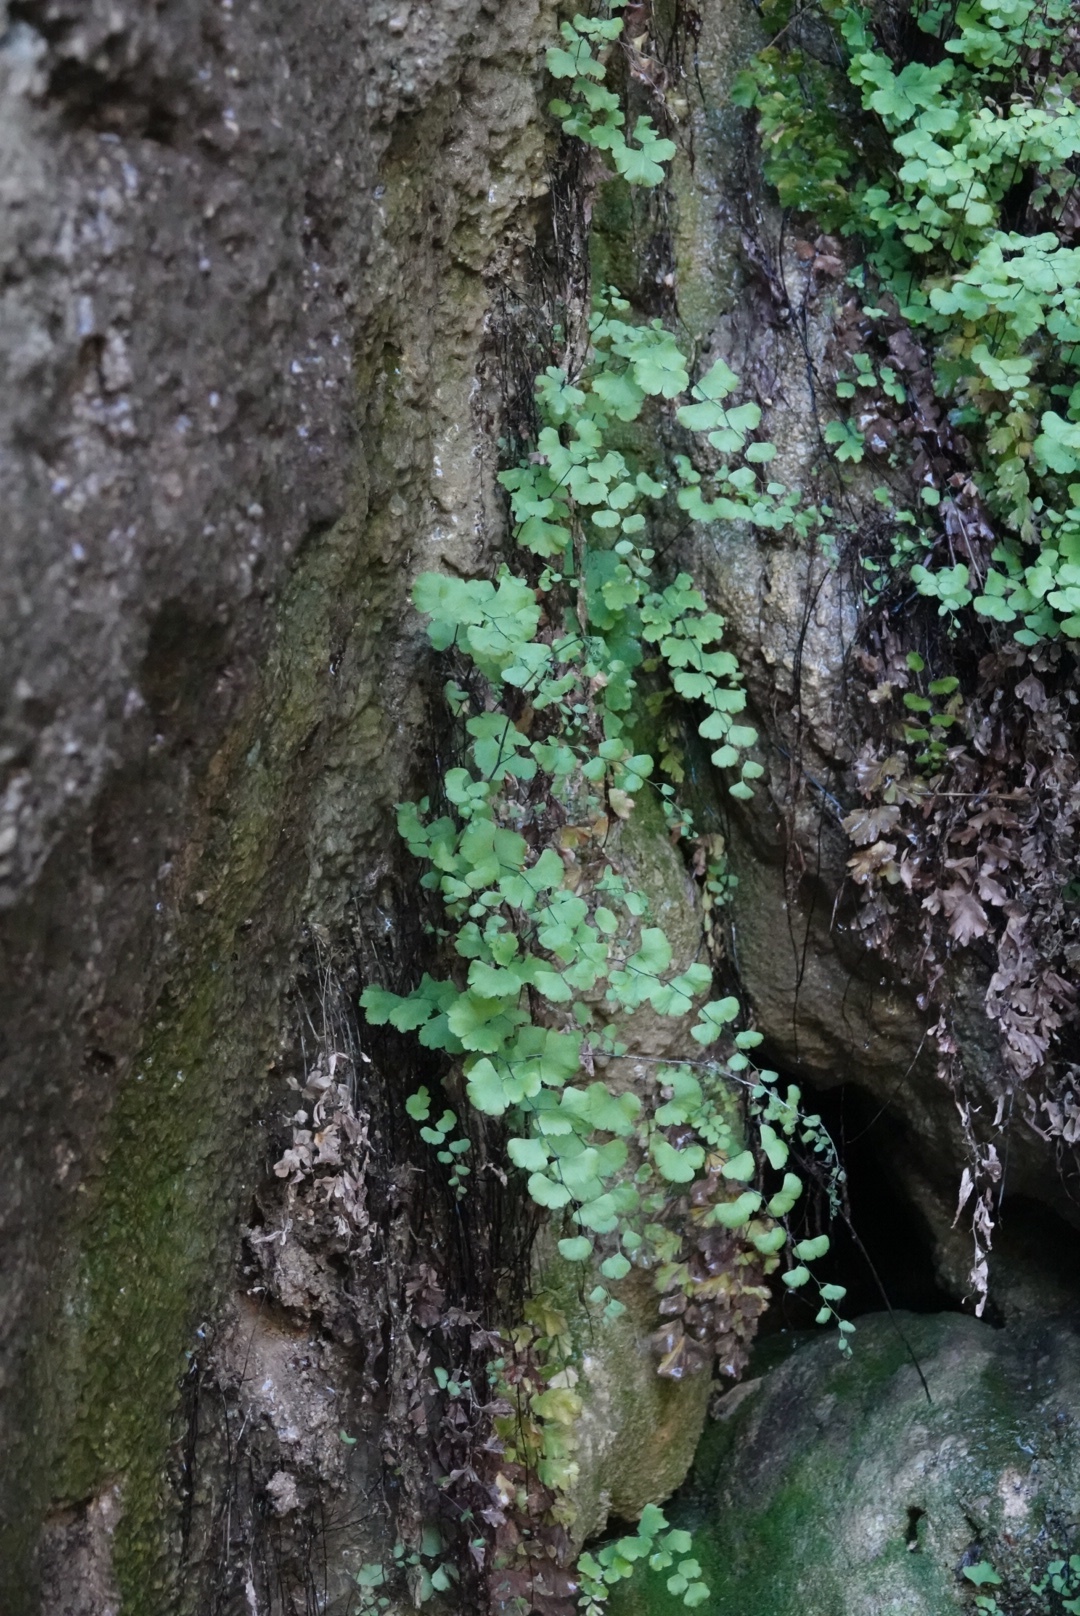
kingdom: Plantae
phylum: Tracheophyta
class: Polypodiopsida
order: Polypodiales
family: Pteridaceae
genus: Adiantum
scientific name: Adiantum capillus-veneris
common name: Maidenhair fern
